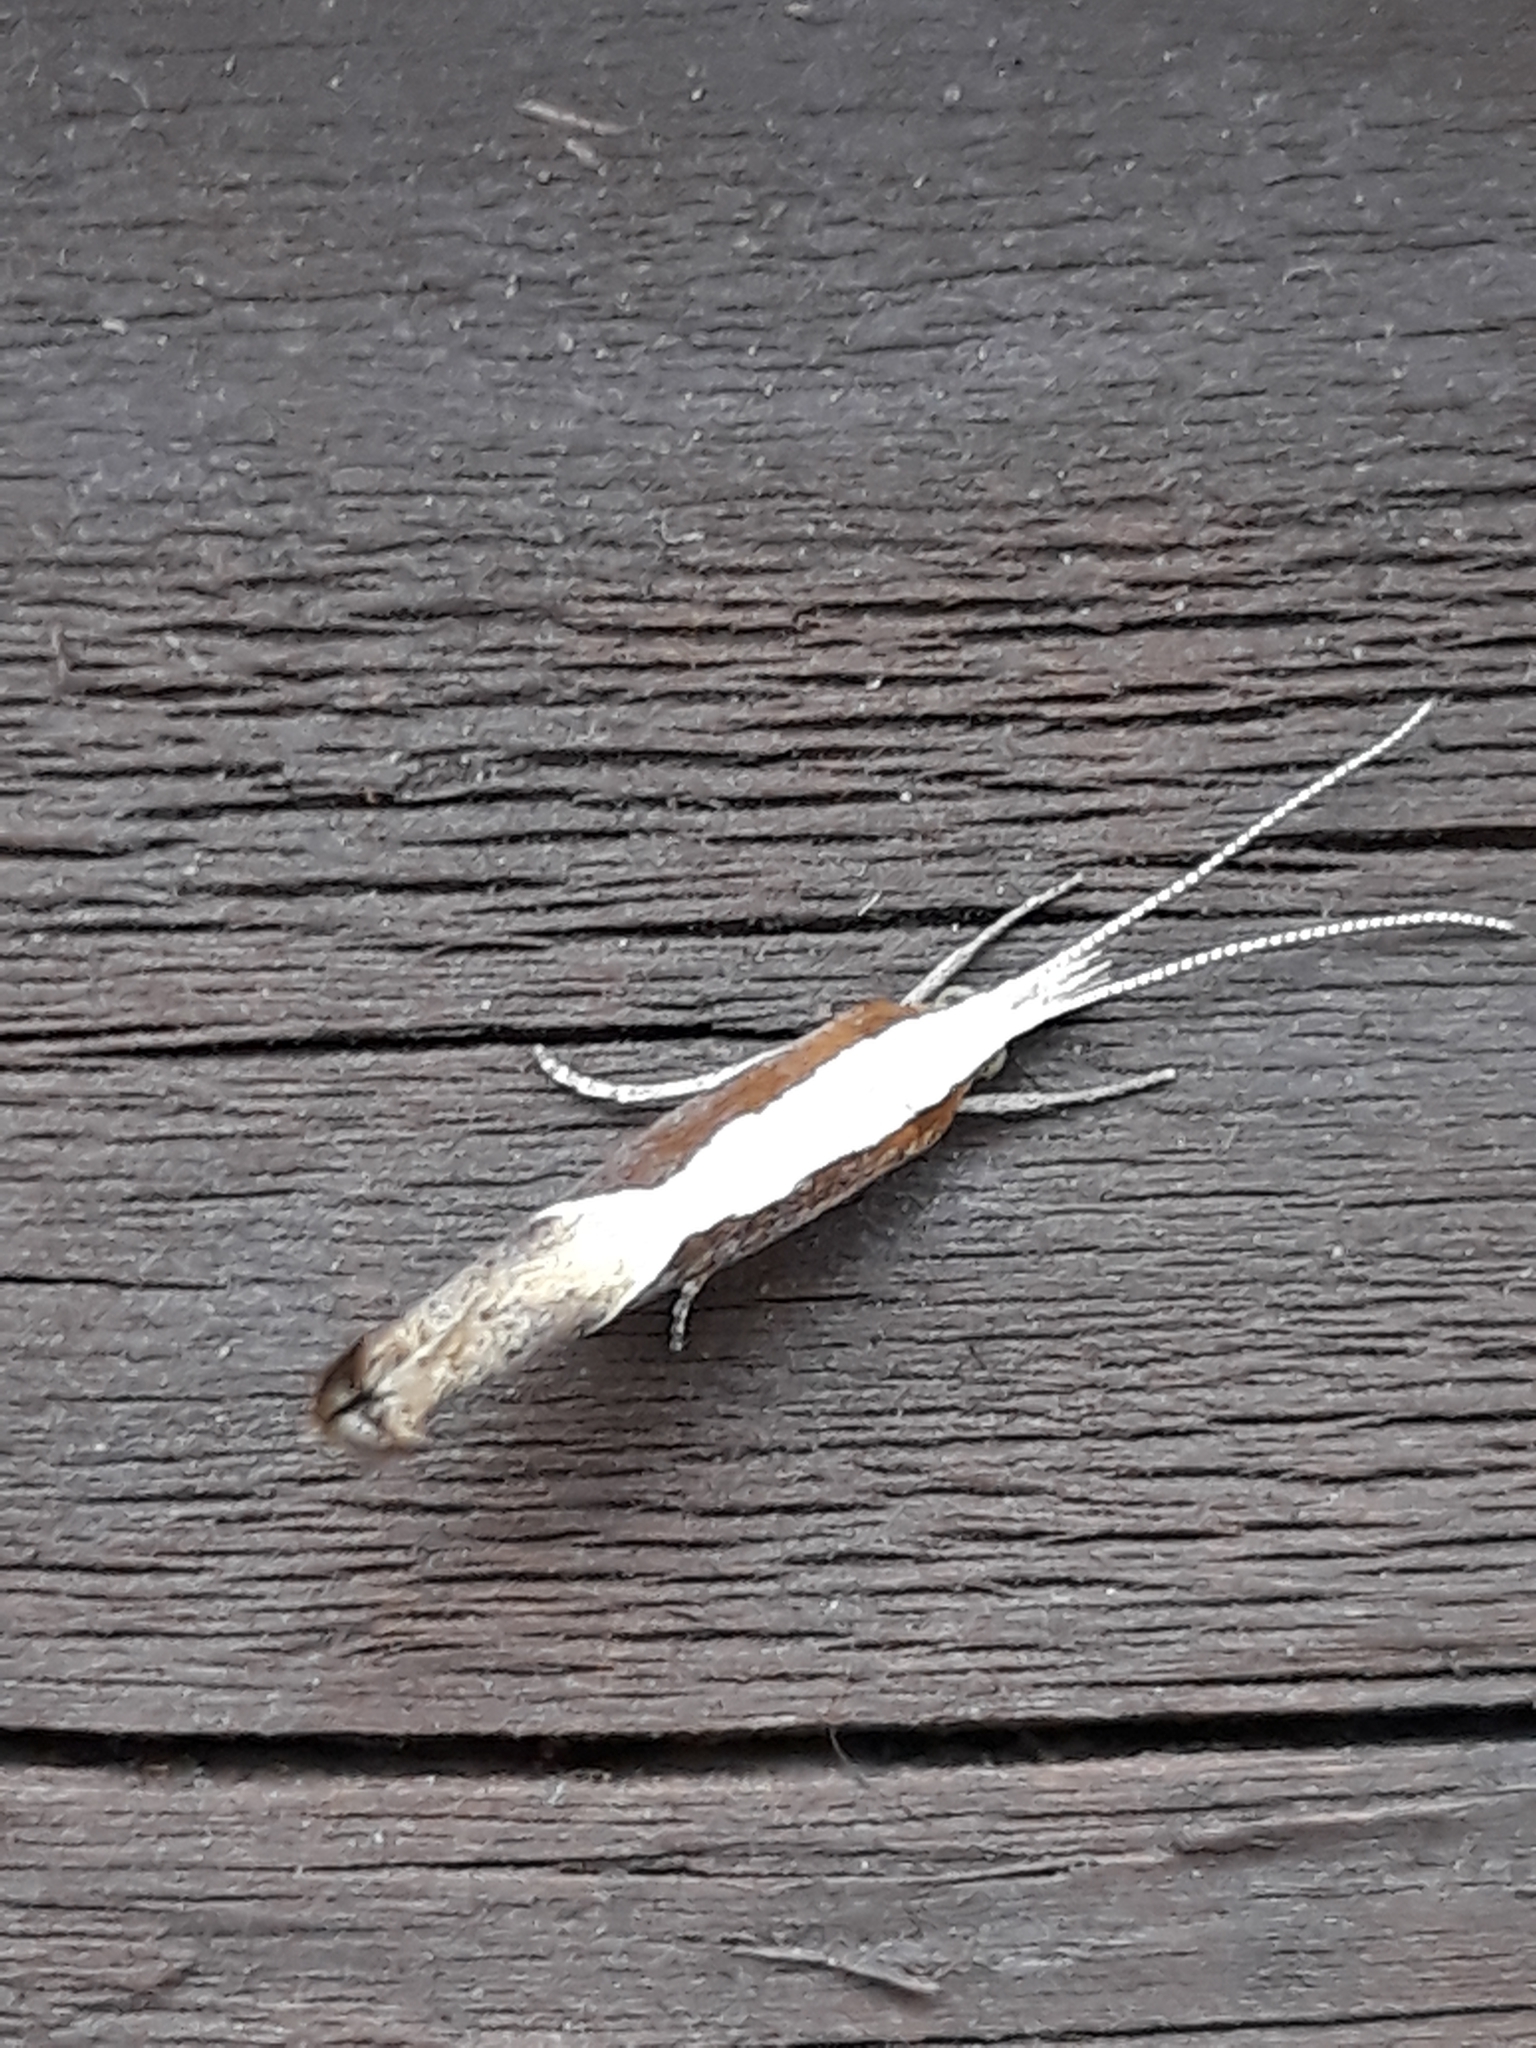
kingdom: Animalia
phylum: Arthropoda
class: Insecta
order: Lepidoptera
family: Ypsolophidae
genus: Ypsolopha
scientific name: Ypsolopha dentella
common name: Honeysuckle moth
